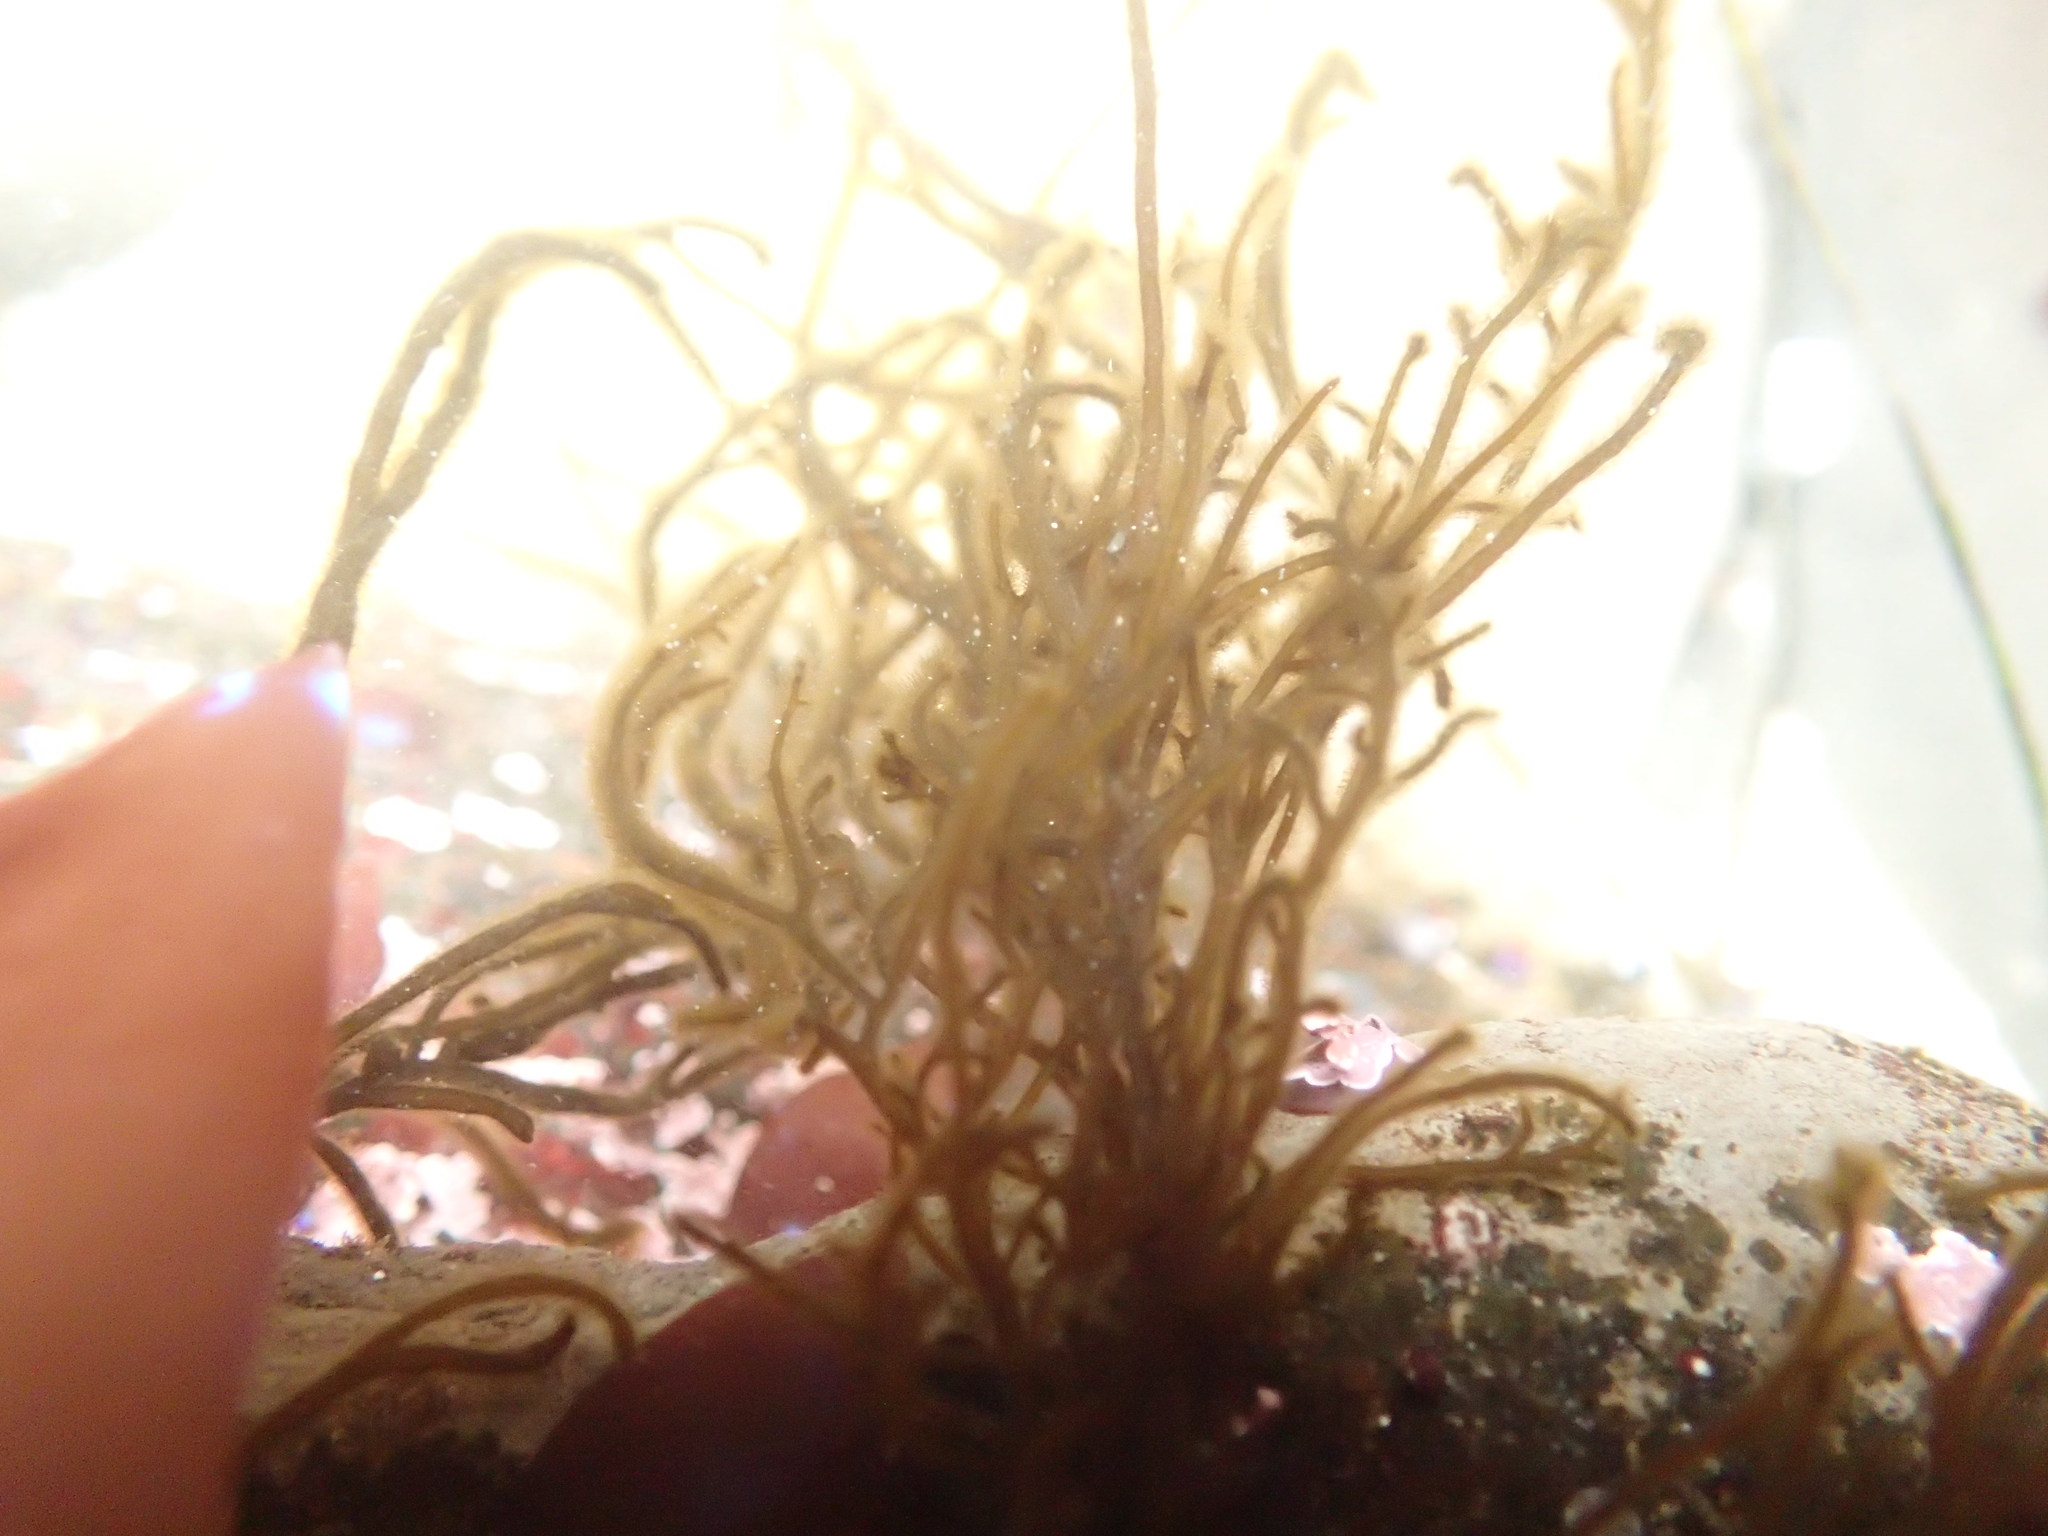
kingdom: Chromista
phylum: Ochrophyta
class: Phaeophyceae
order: Ectocarpales
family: Chordariaceae
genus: Haplogloia
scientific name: Haplogloia andersonii
